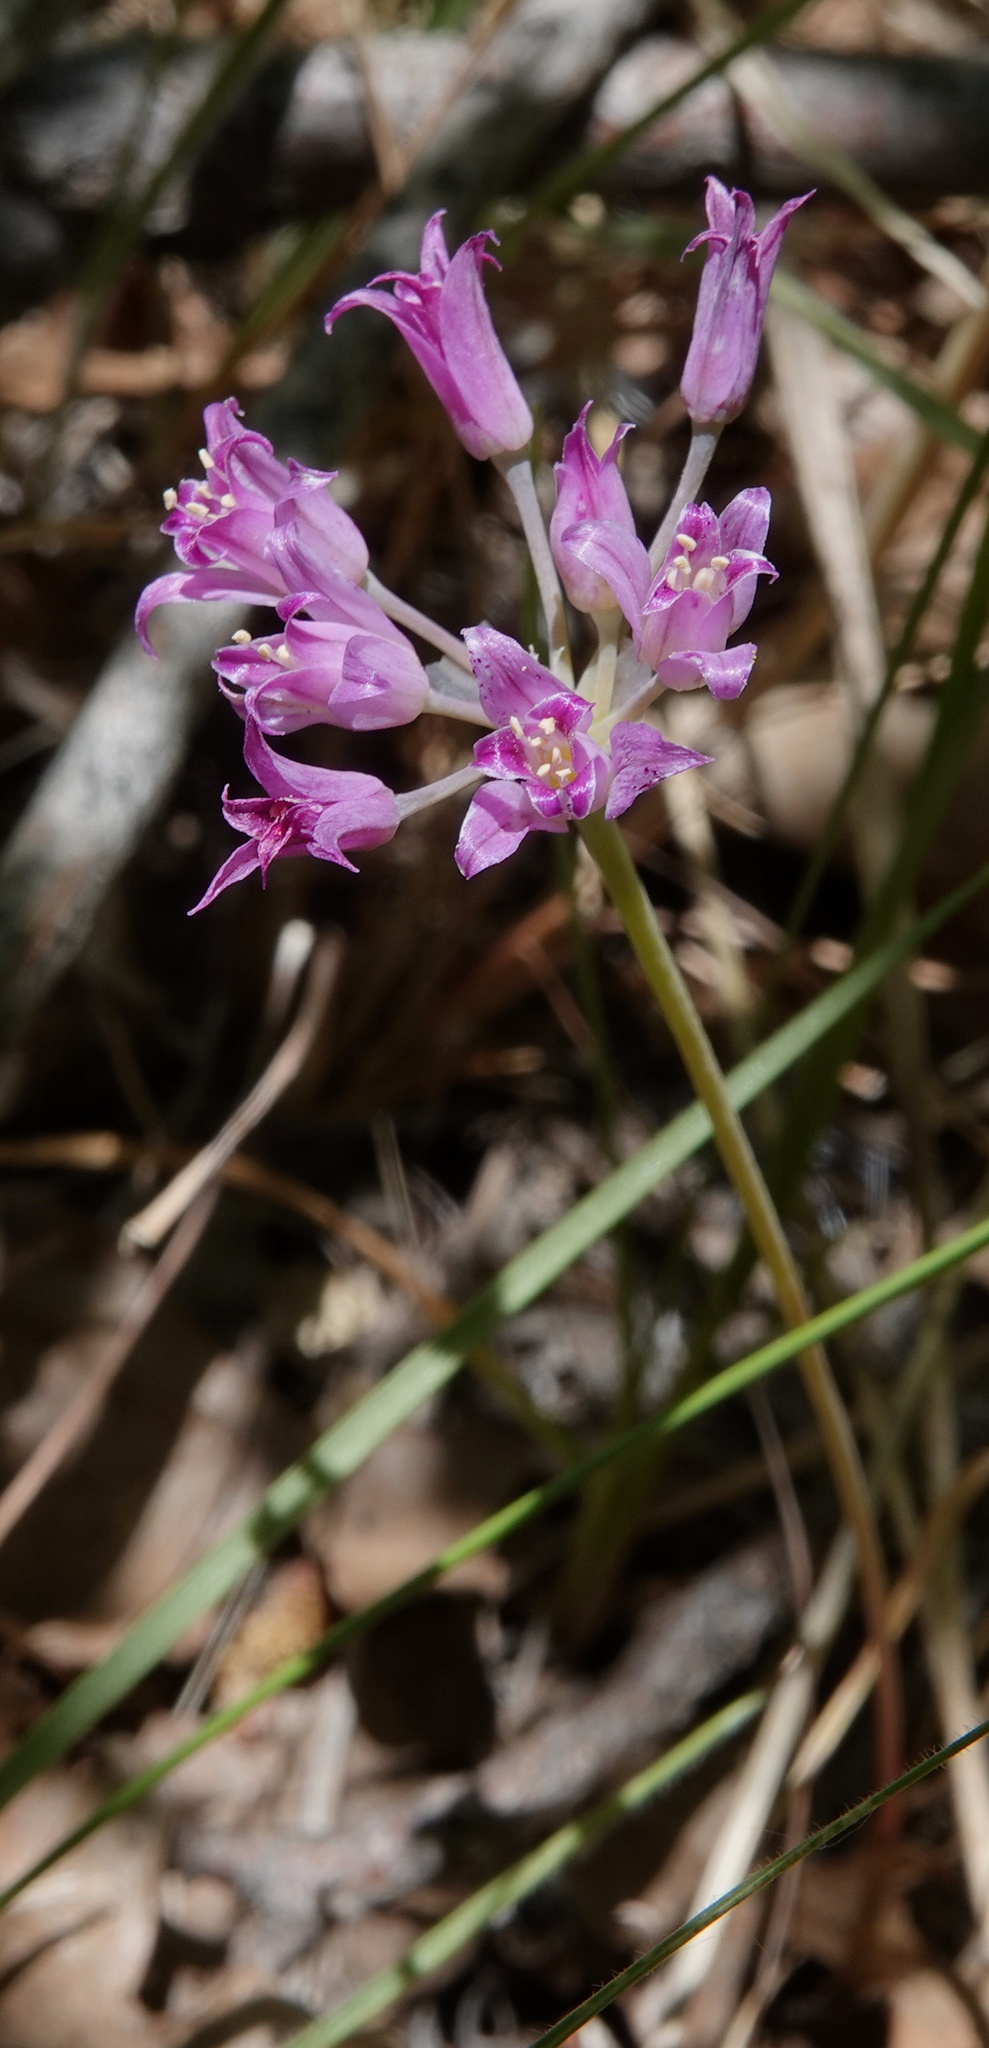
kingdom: Plantae
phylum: Tracheophyta
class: Liliopsida
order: Asparagales
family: Amaryllidaceae
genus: Allium
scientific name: Allium acuminatum
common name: Hooker's onion
